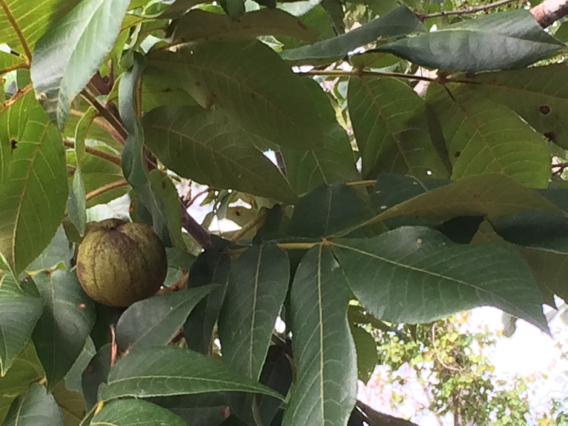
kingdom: Plantae
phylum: Tracheophyta
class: Magnoliopsida
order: Fagales
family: Juglandaceae
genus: Carya
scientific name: Carya alba
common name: Mockernut hickory
